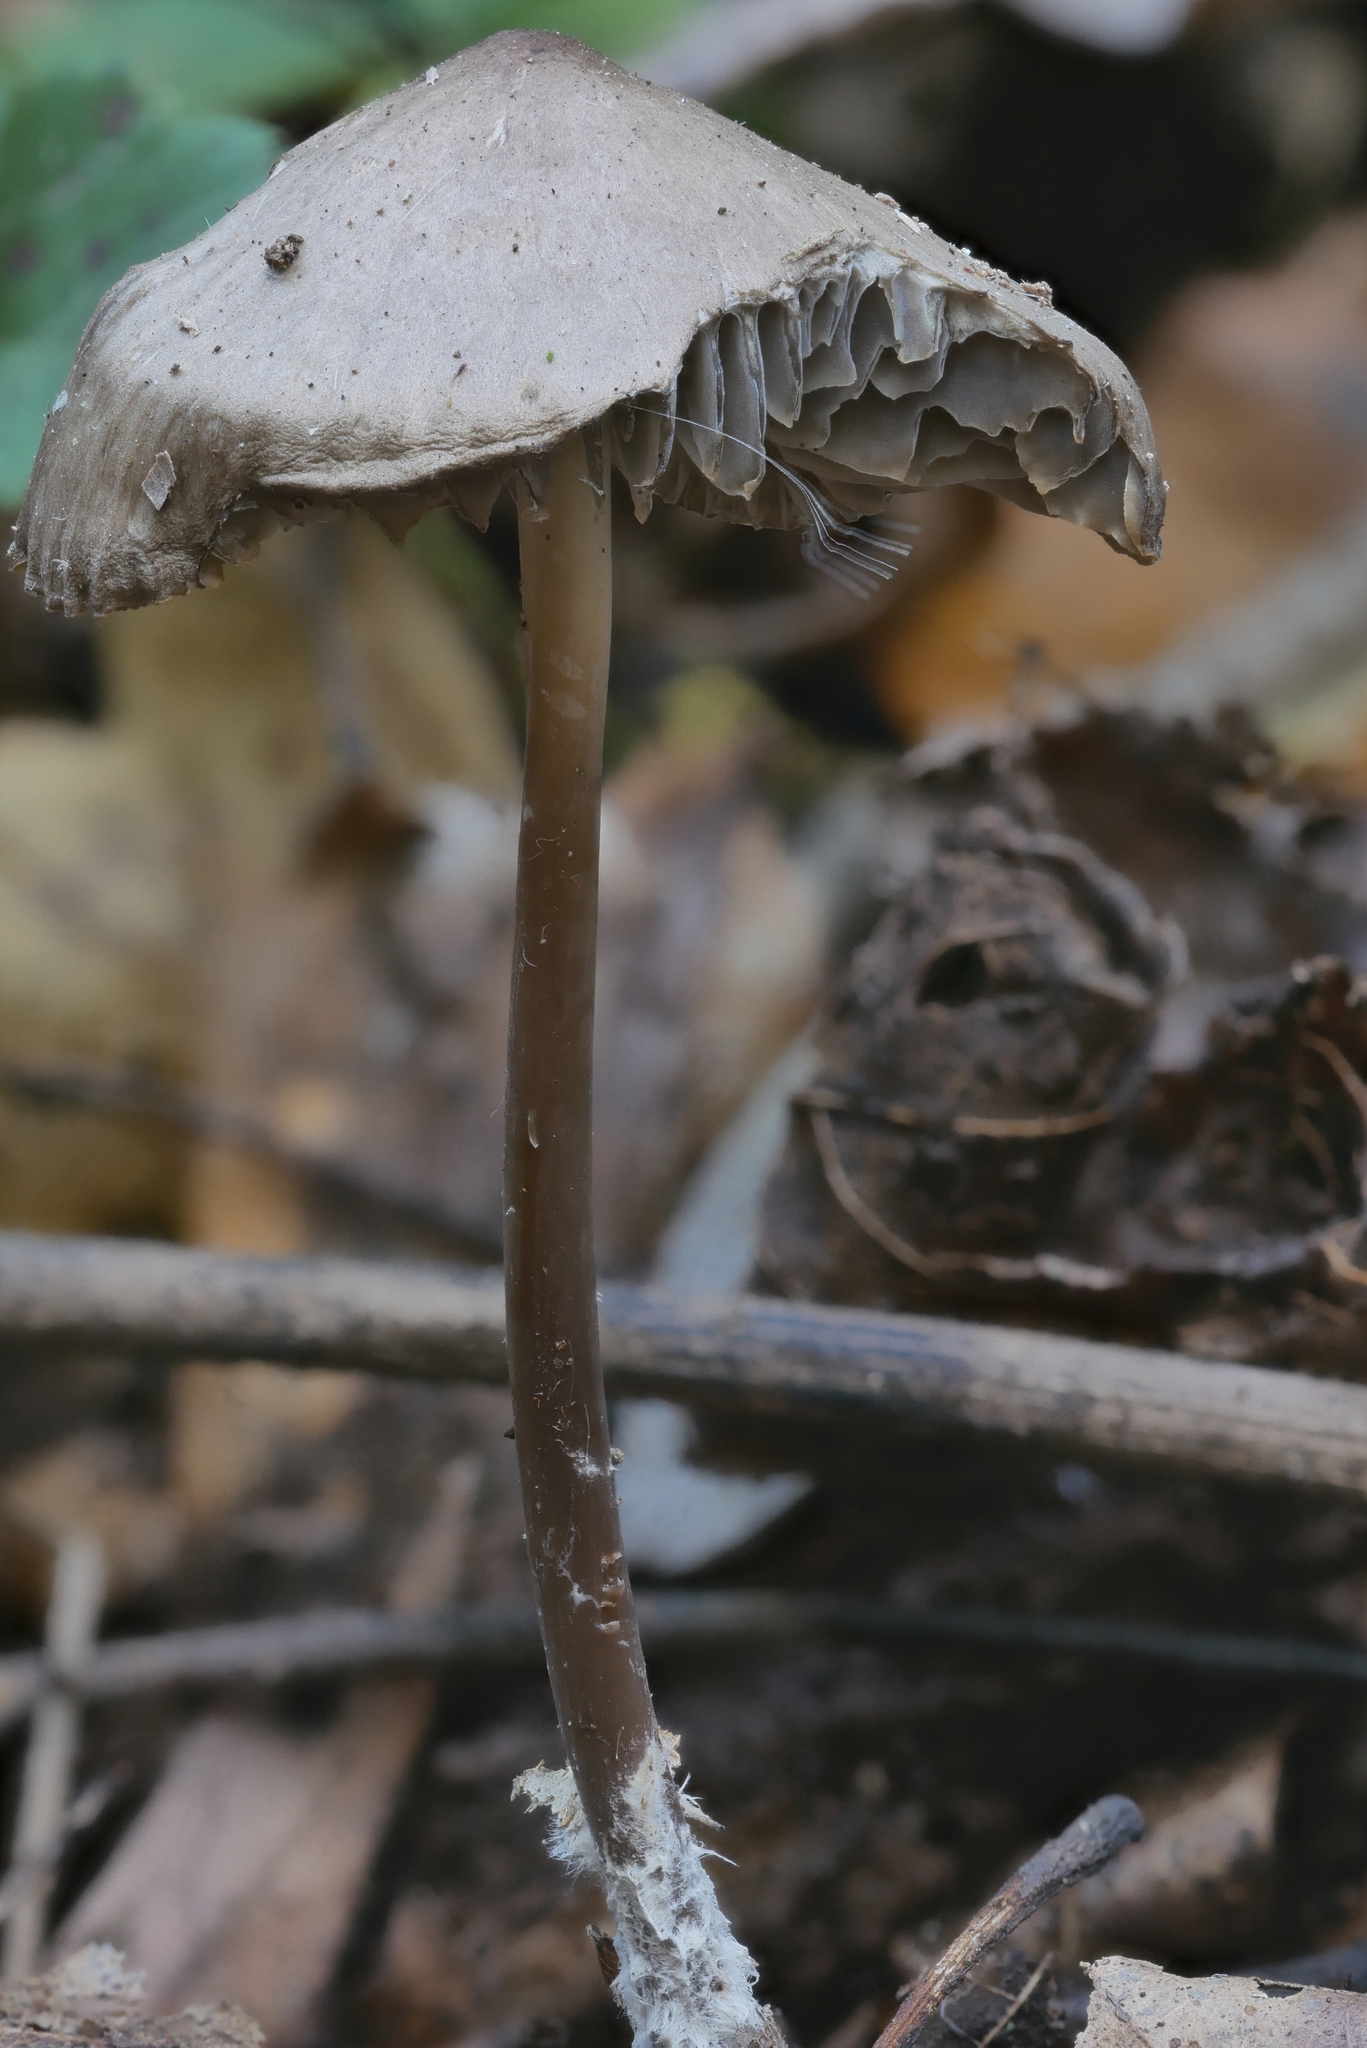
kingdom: Fungi
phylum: Basidiomycota
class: Agaricomycetes
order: Agaricales
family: Mycenaceae
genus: Mycena
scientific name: Mycena galericulata
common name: Bonnet mycena
